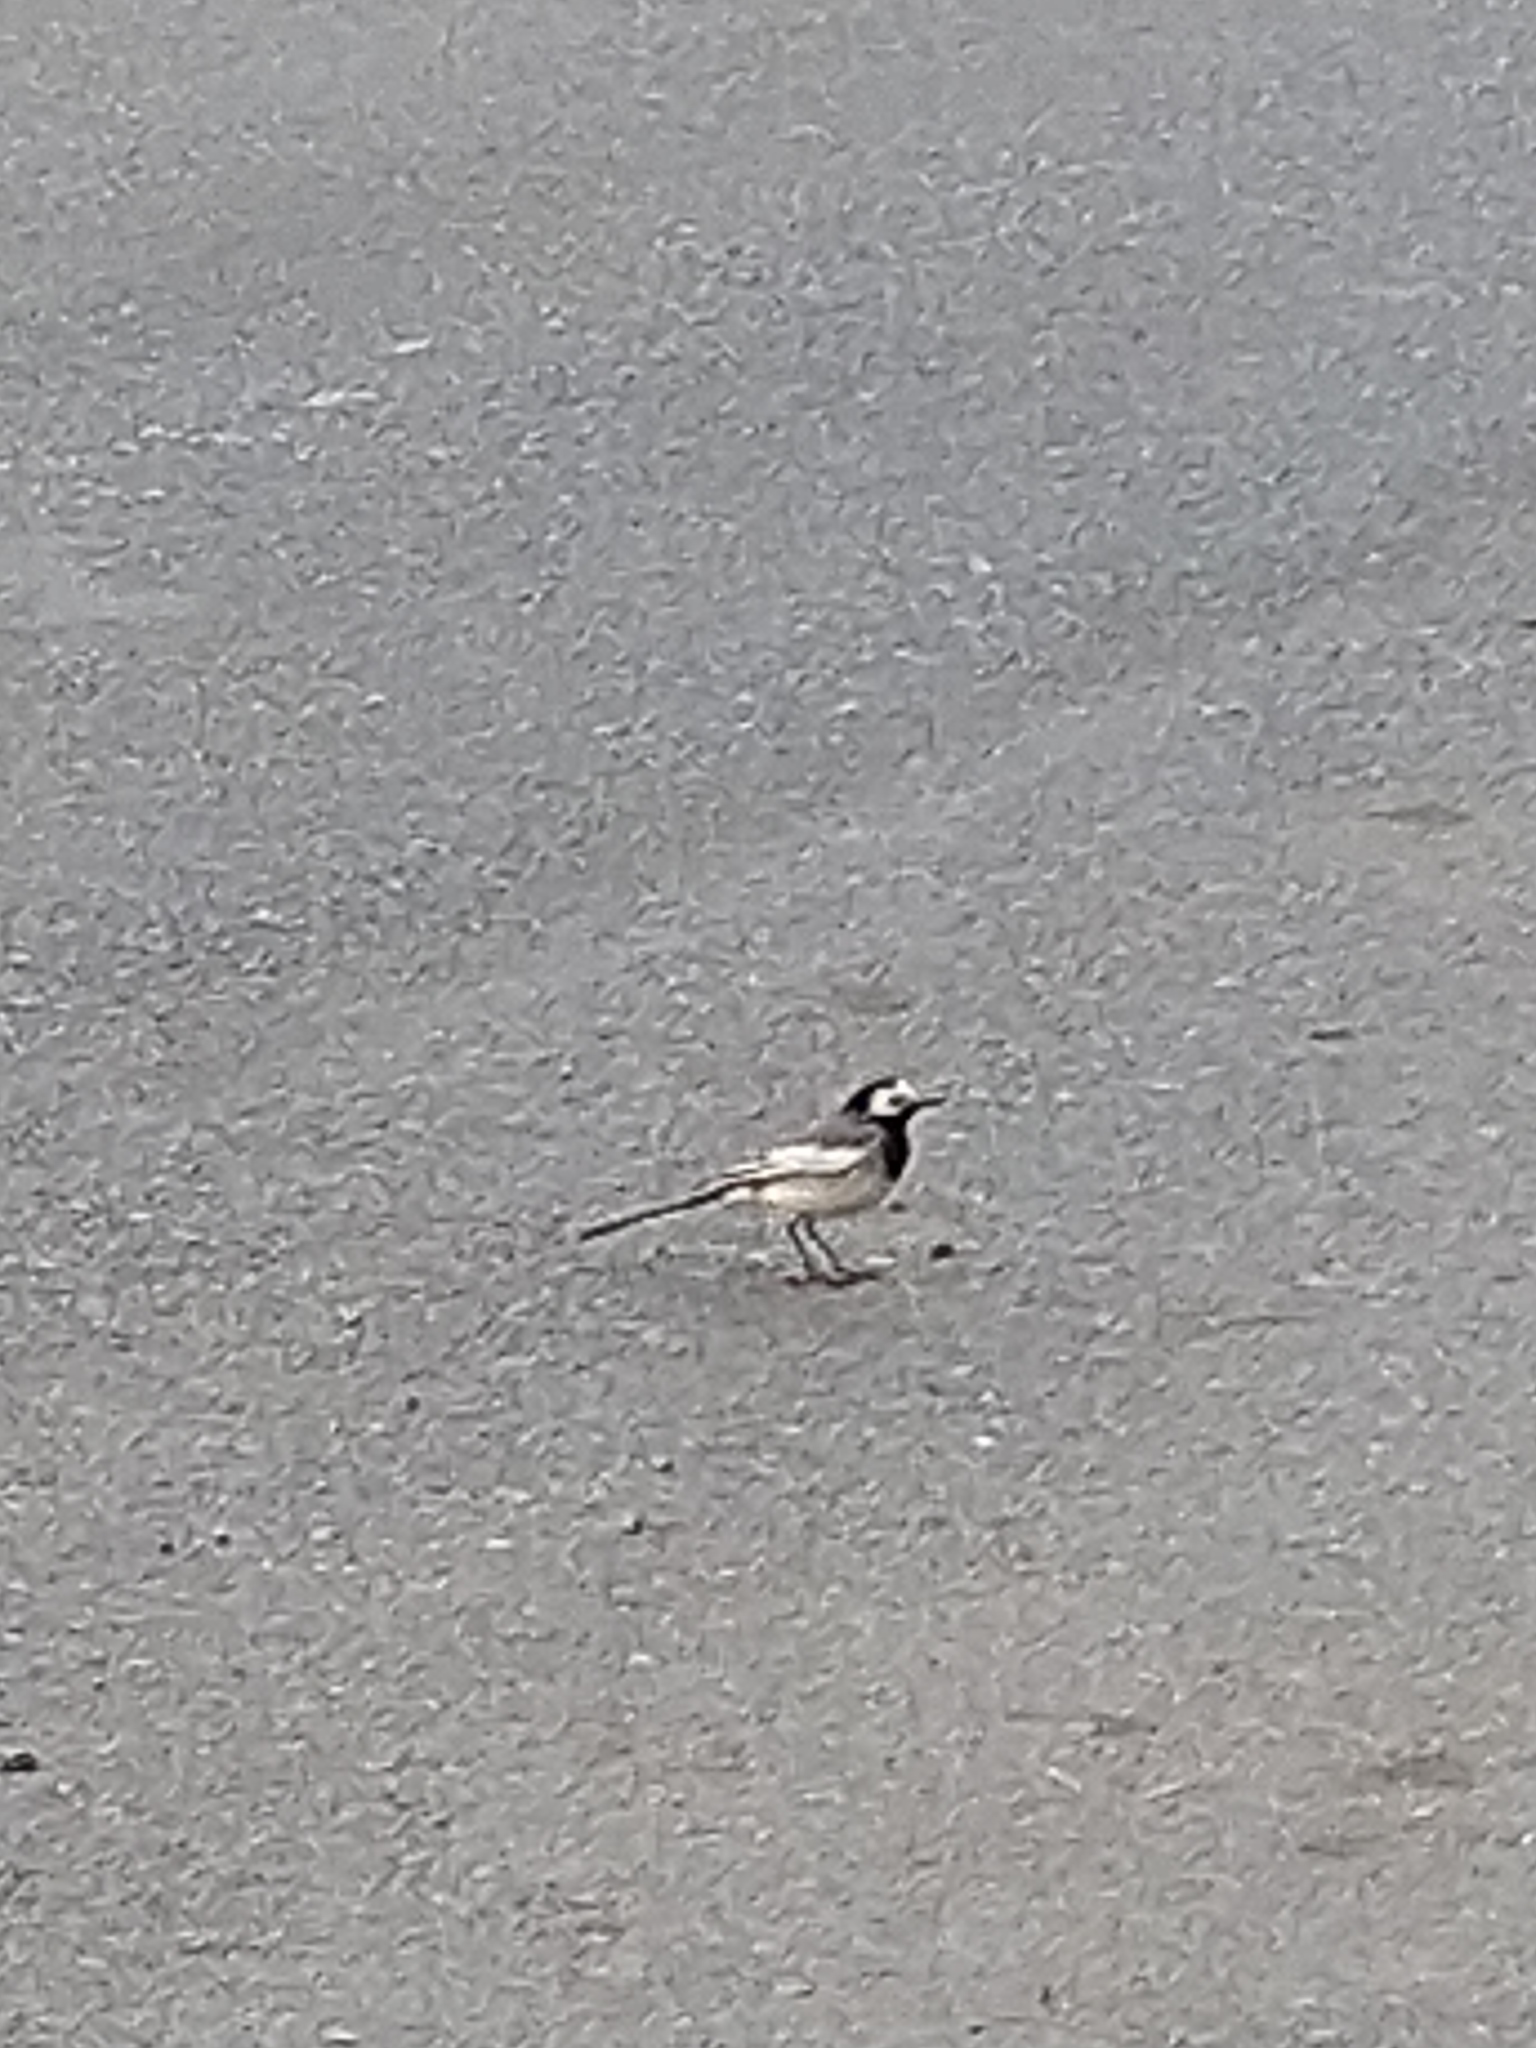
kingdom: Animalia
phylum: Chordata
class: Aves
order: Passeriformes
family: Motacillidae
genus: Motacilla
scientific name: Motacilla alba
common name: White wagtail
